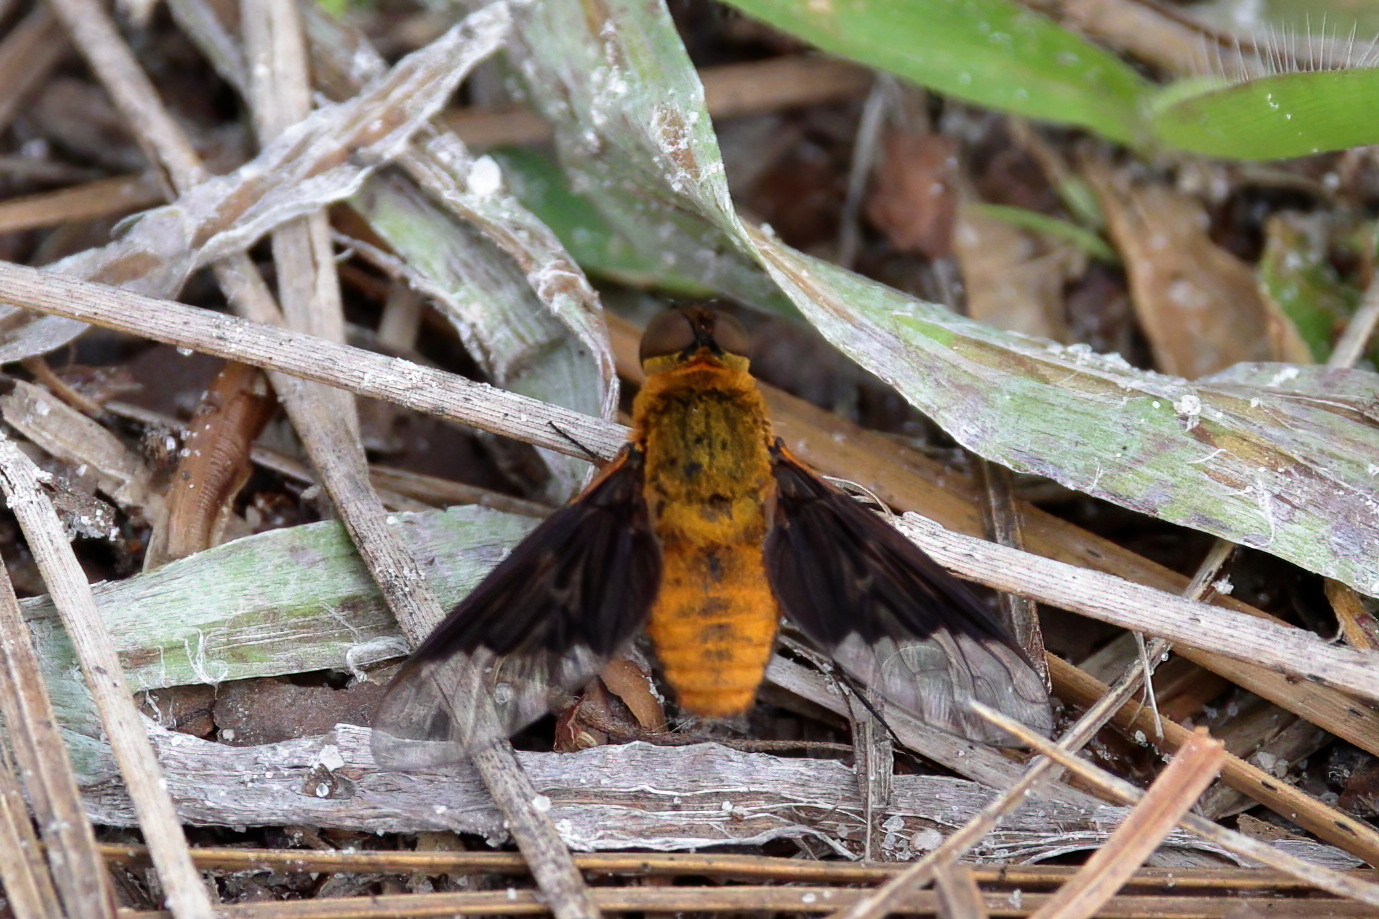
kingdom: Animalia
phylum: Arthropoda
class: Insecta
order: Diptera
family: Bombyliidae
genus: Chrysanthrax
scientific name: Chrysanthrax cypris
